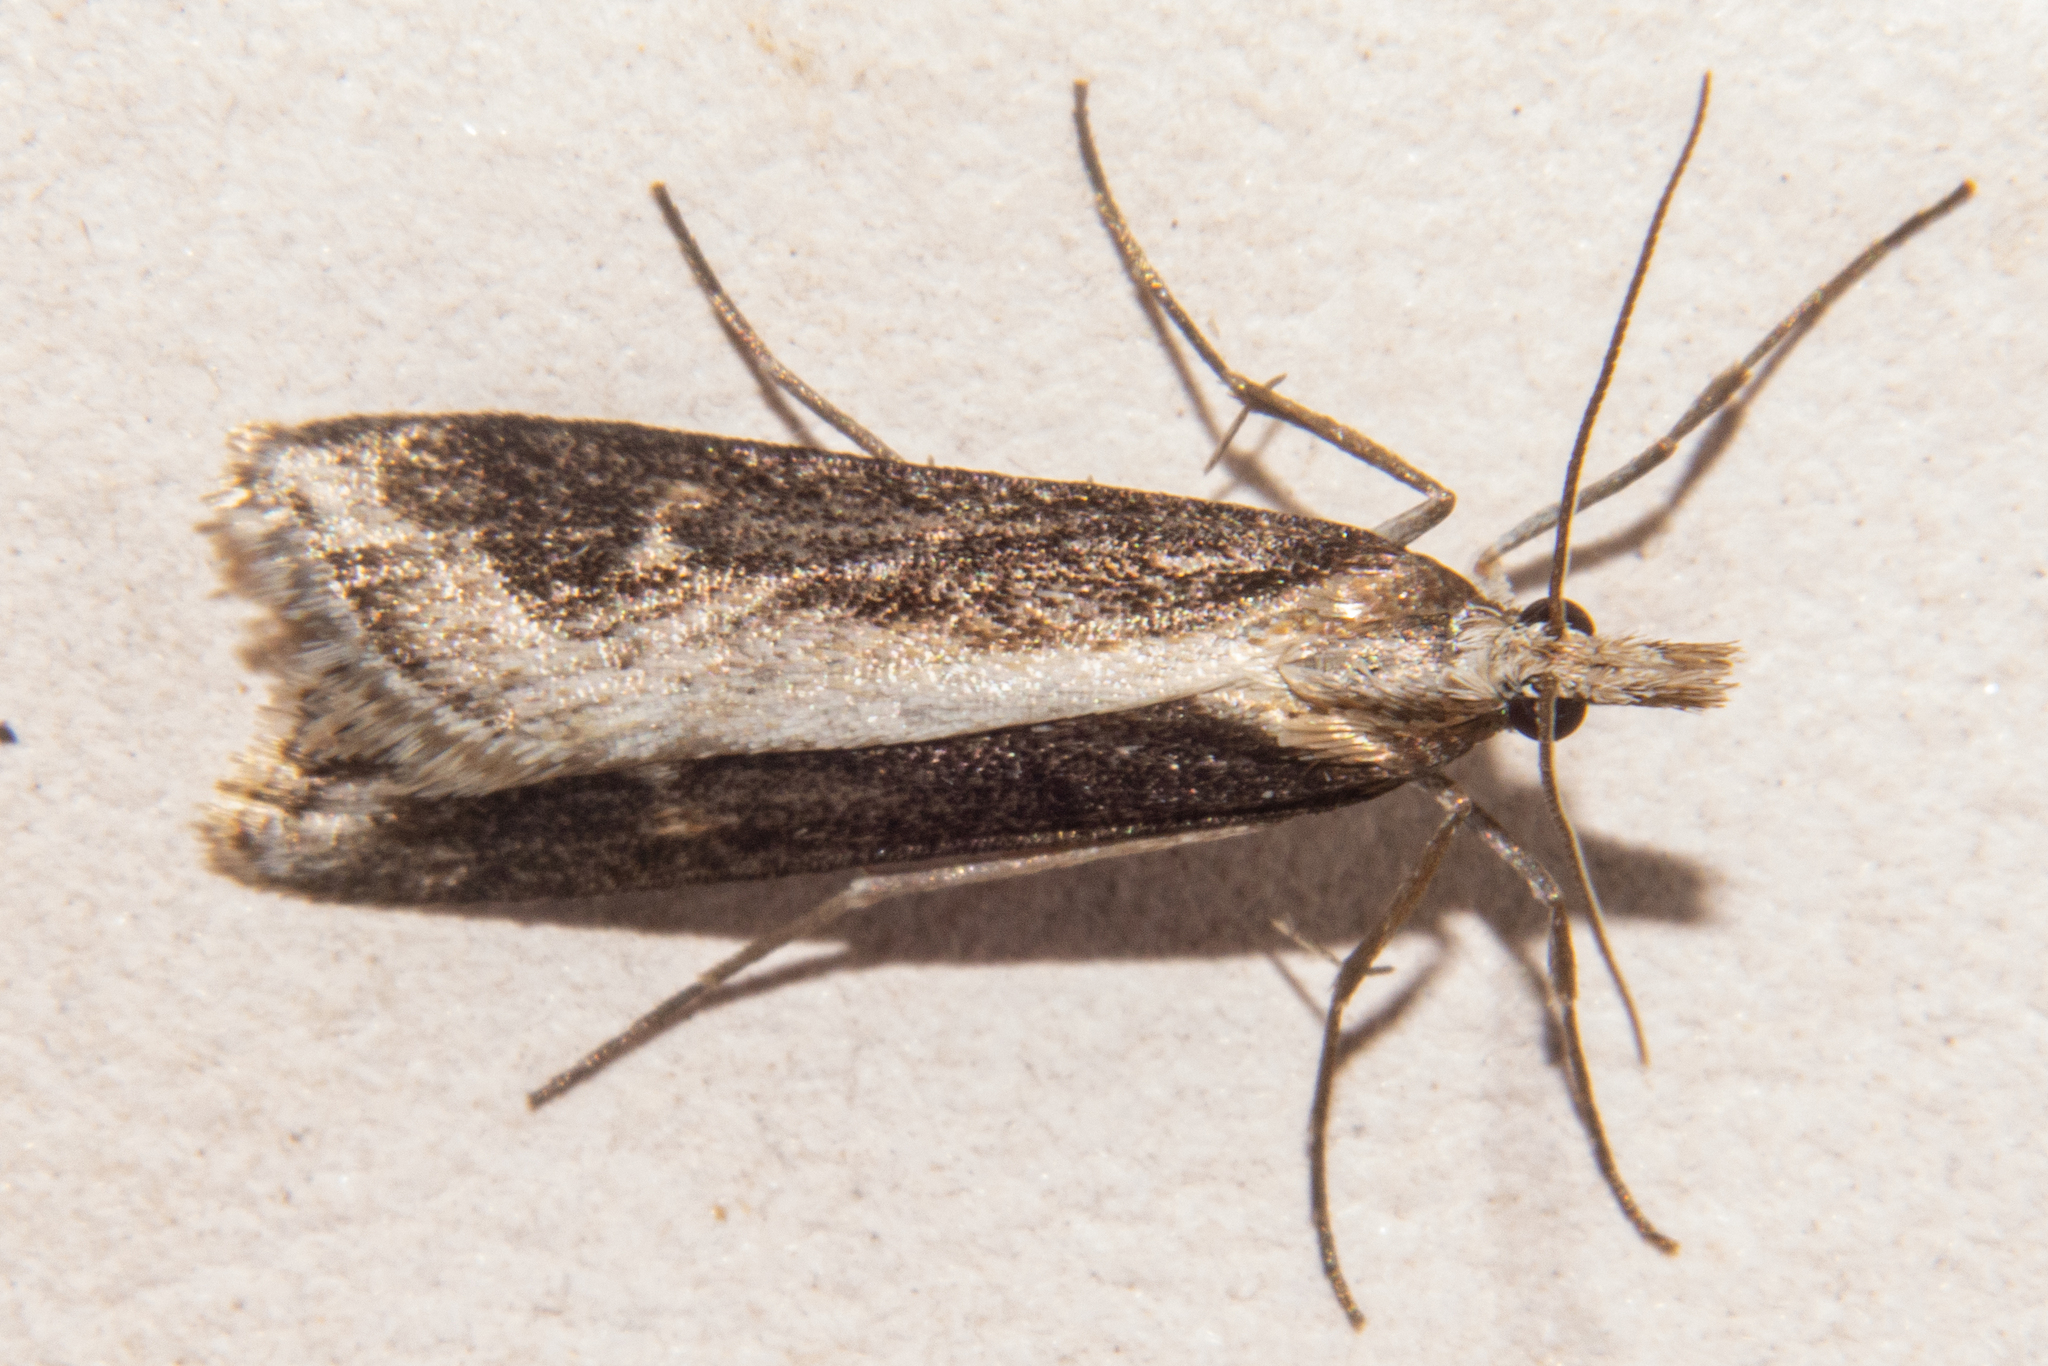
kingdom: Animalia
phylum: Arthropoda
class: Insecta
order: Lepidoptera
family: Crambidae
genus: Scoparia
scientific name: Scoparia exilis
